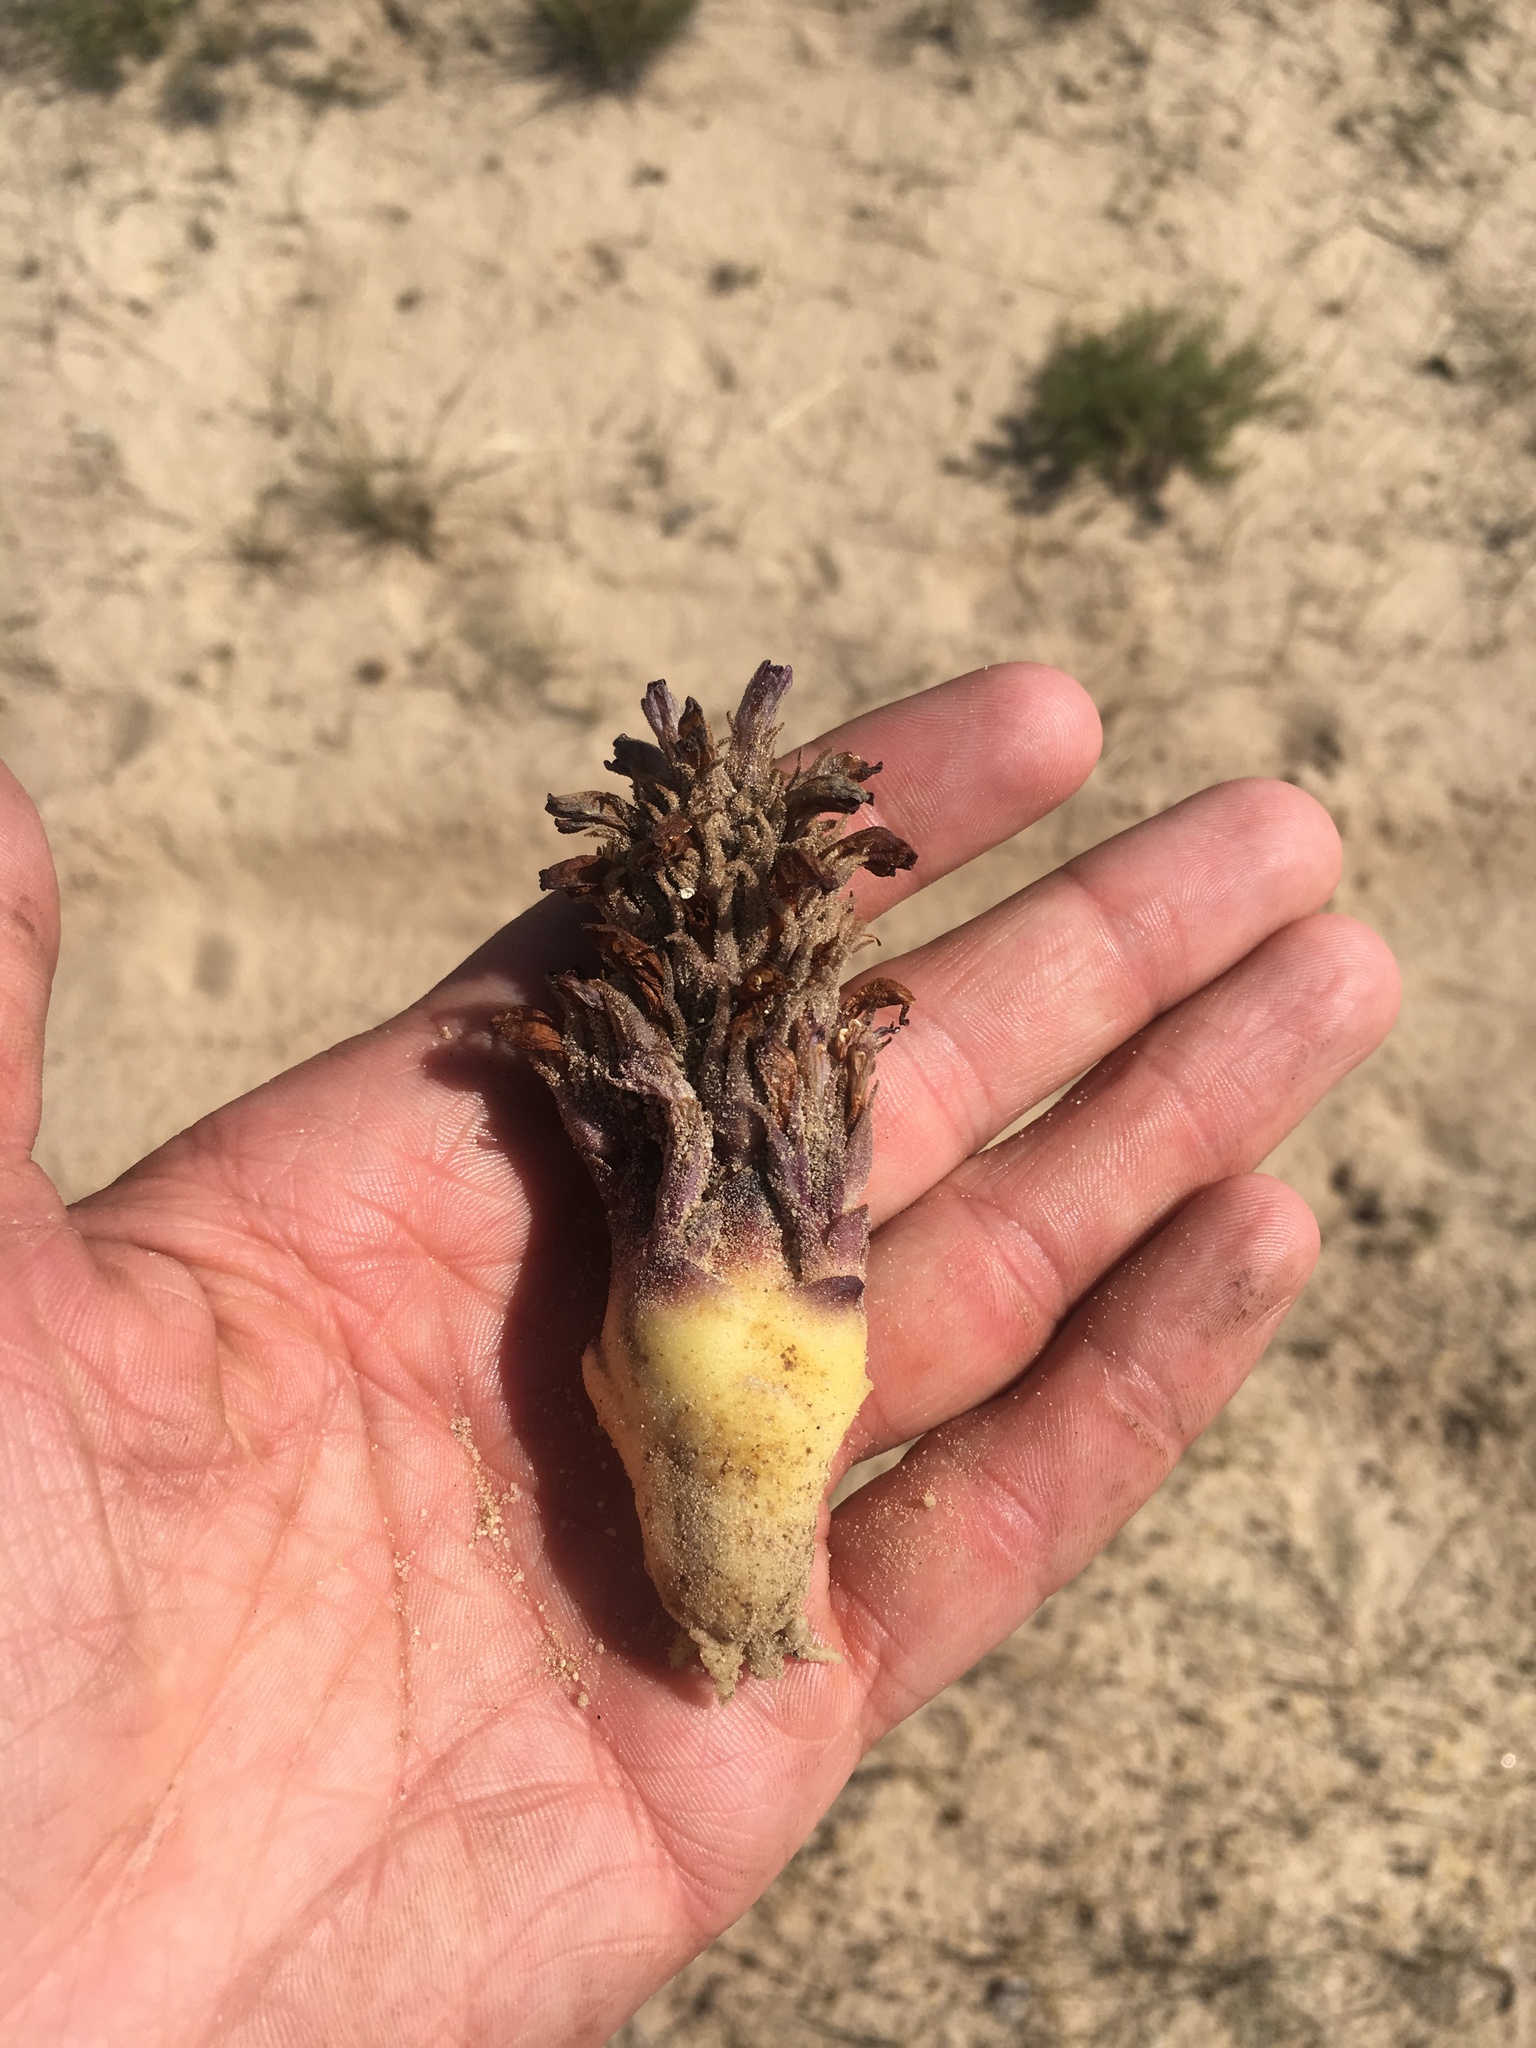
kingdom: Plantae
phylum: Tracheophyta
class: Magnoliopsida
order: Lamiales
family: Orobanchaceae
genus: Aphyllon
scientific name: Aphyllon ludovicianum
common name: Louisiana broomrape
